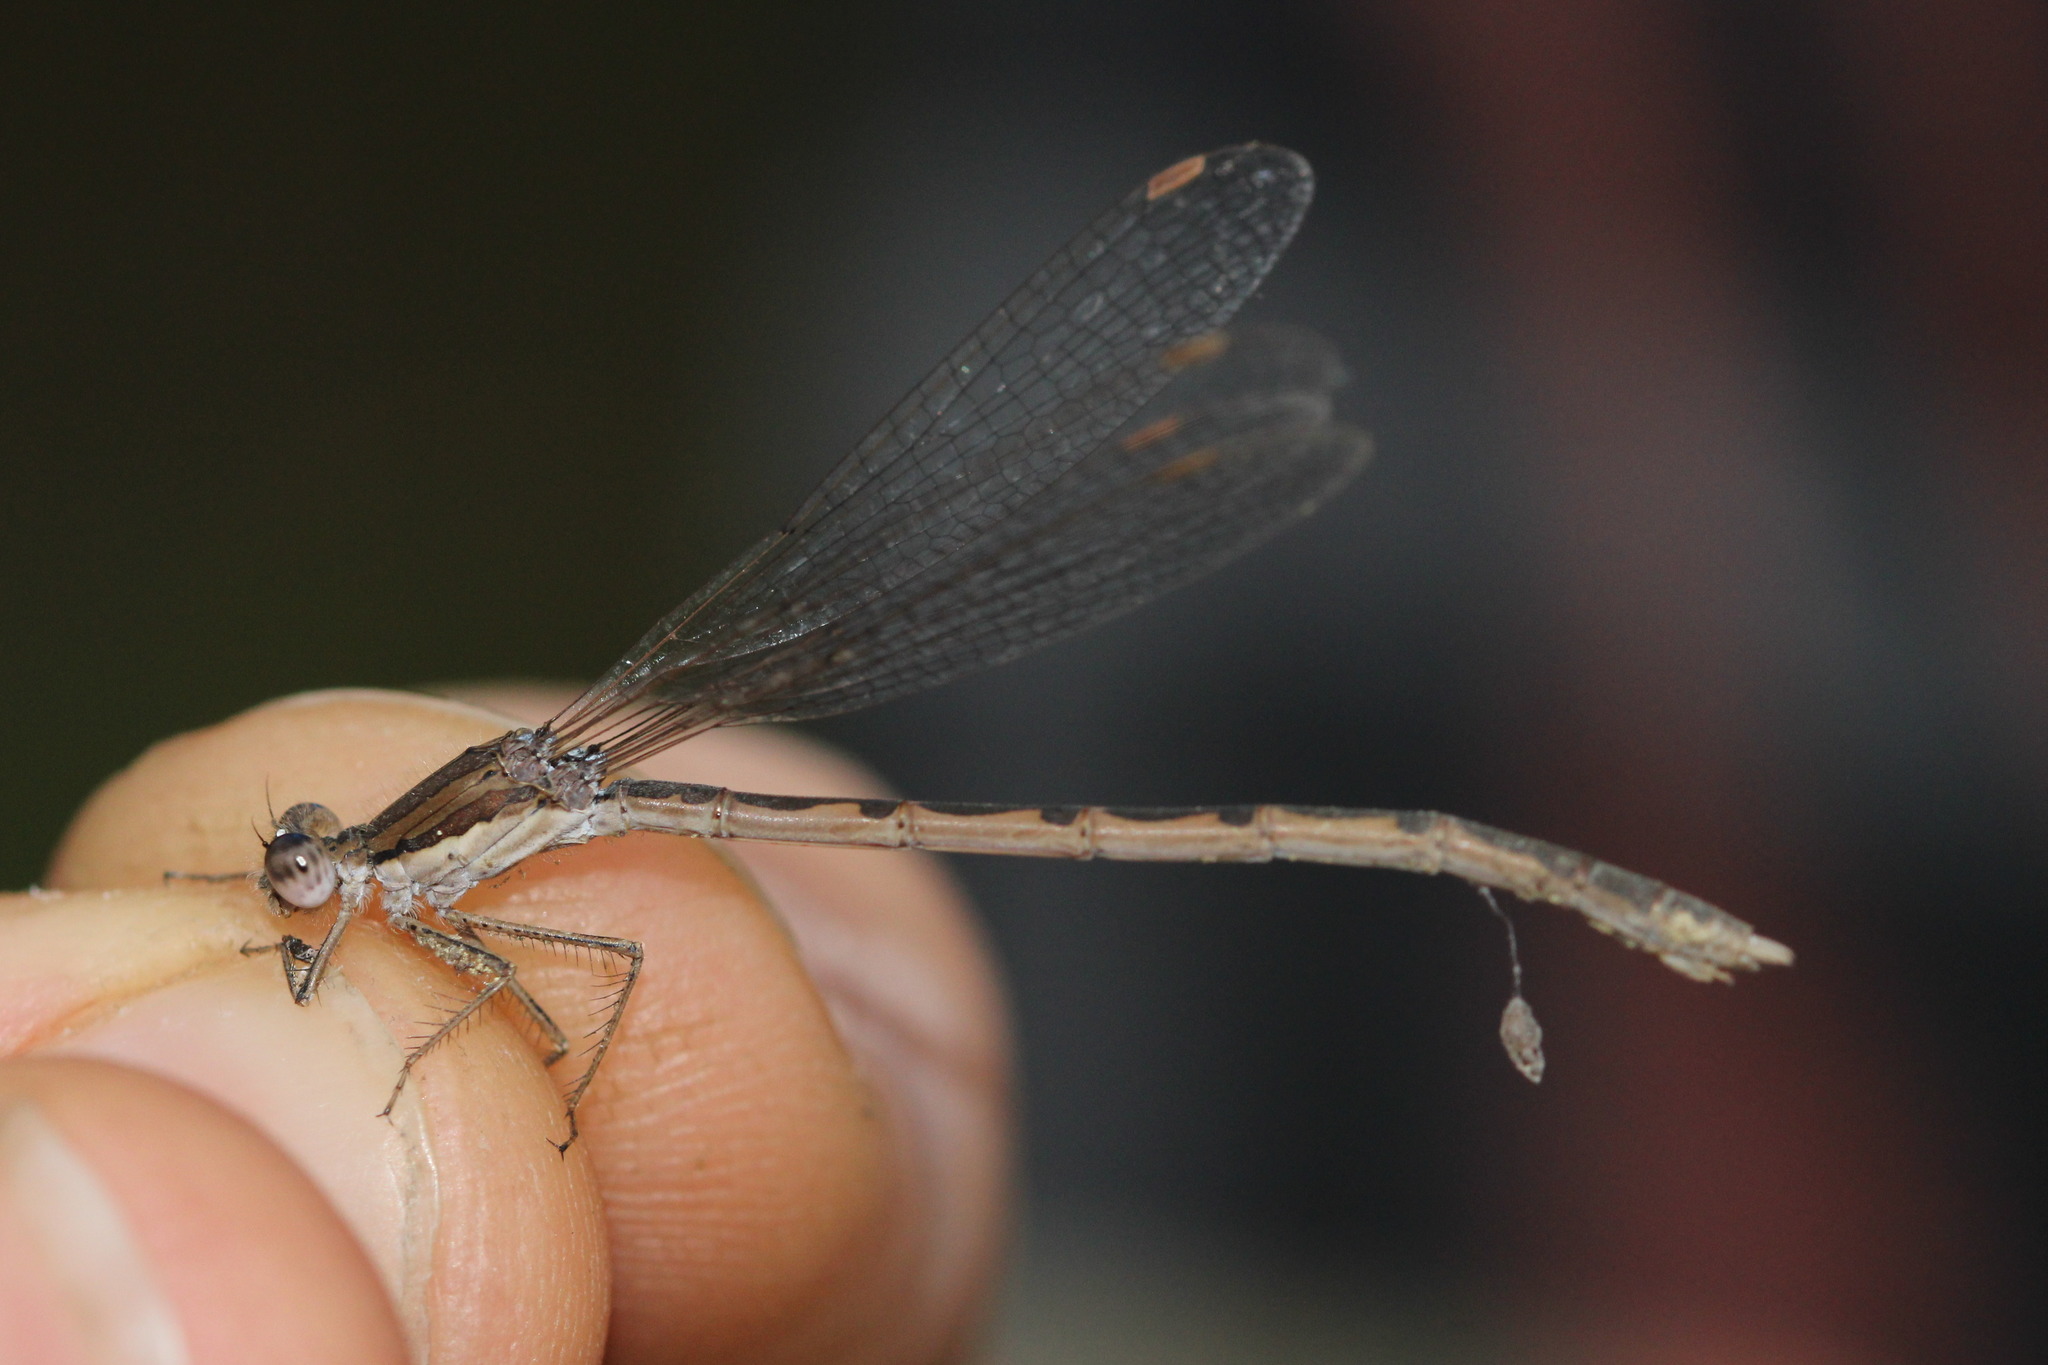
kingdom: Animalia
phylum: Arthropoda
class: Insecta
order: Odonata
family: Lestidae
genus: Sympecma
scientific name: Sympecma fusca
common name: Common winter damsel
